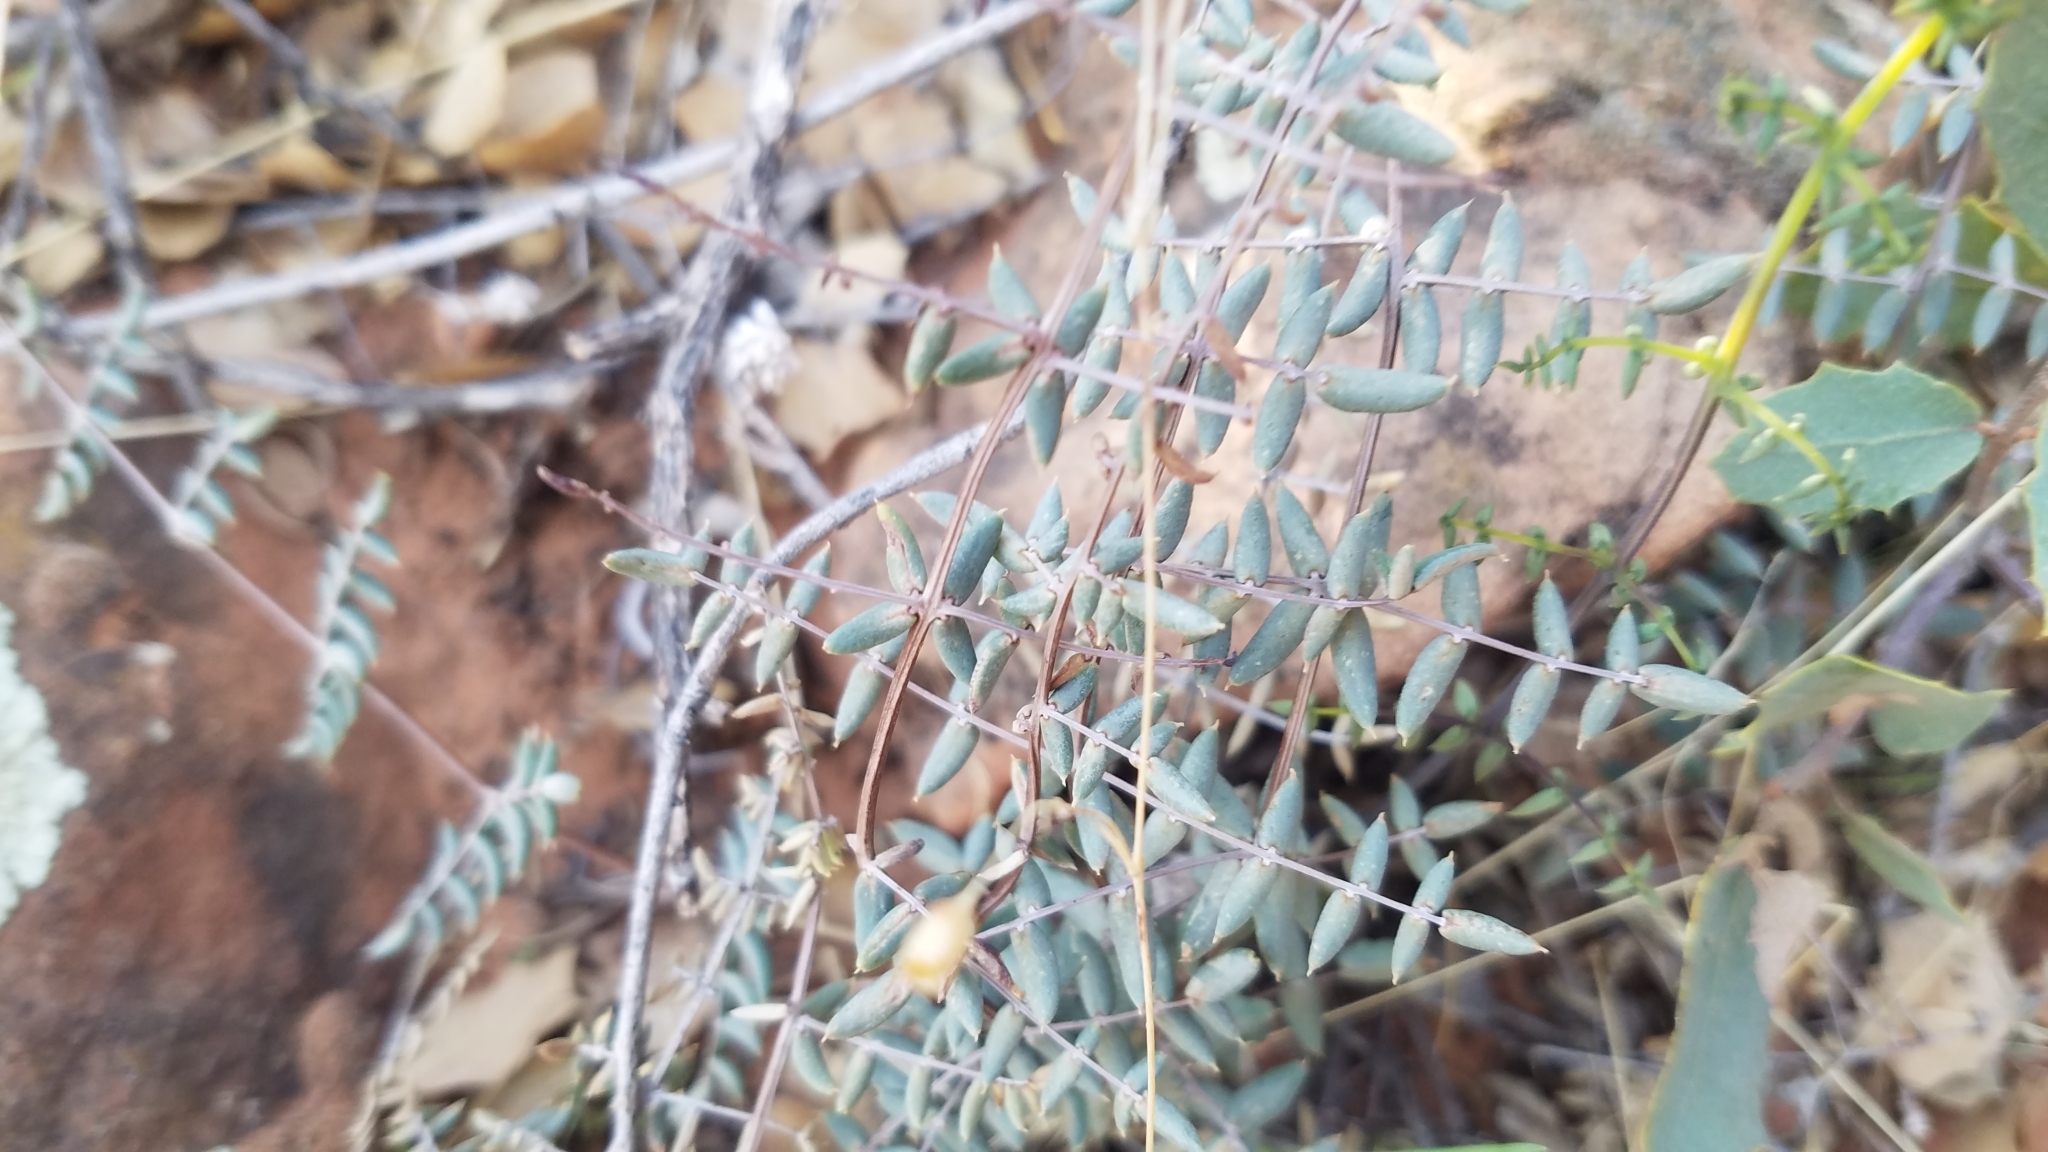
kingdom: Plantae
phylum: Tracheophyta
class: Polypodiopsida
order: Polypodiales
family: Pteridaceae
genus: Pellaea
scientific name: Pellaea truncata
